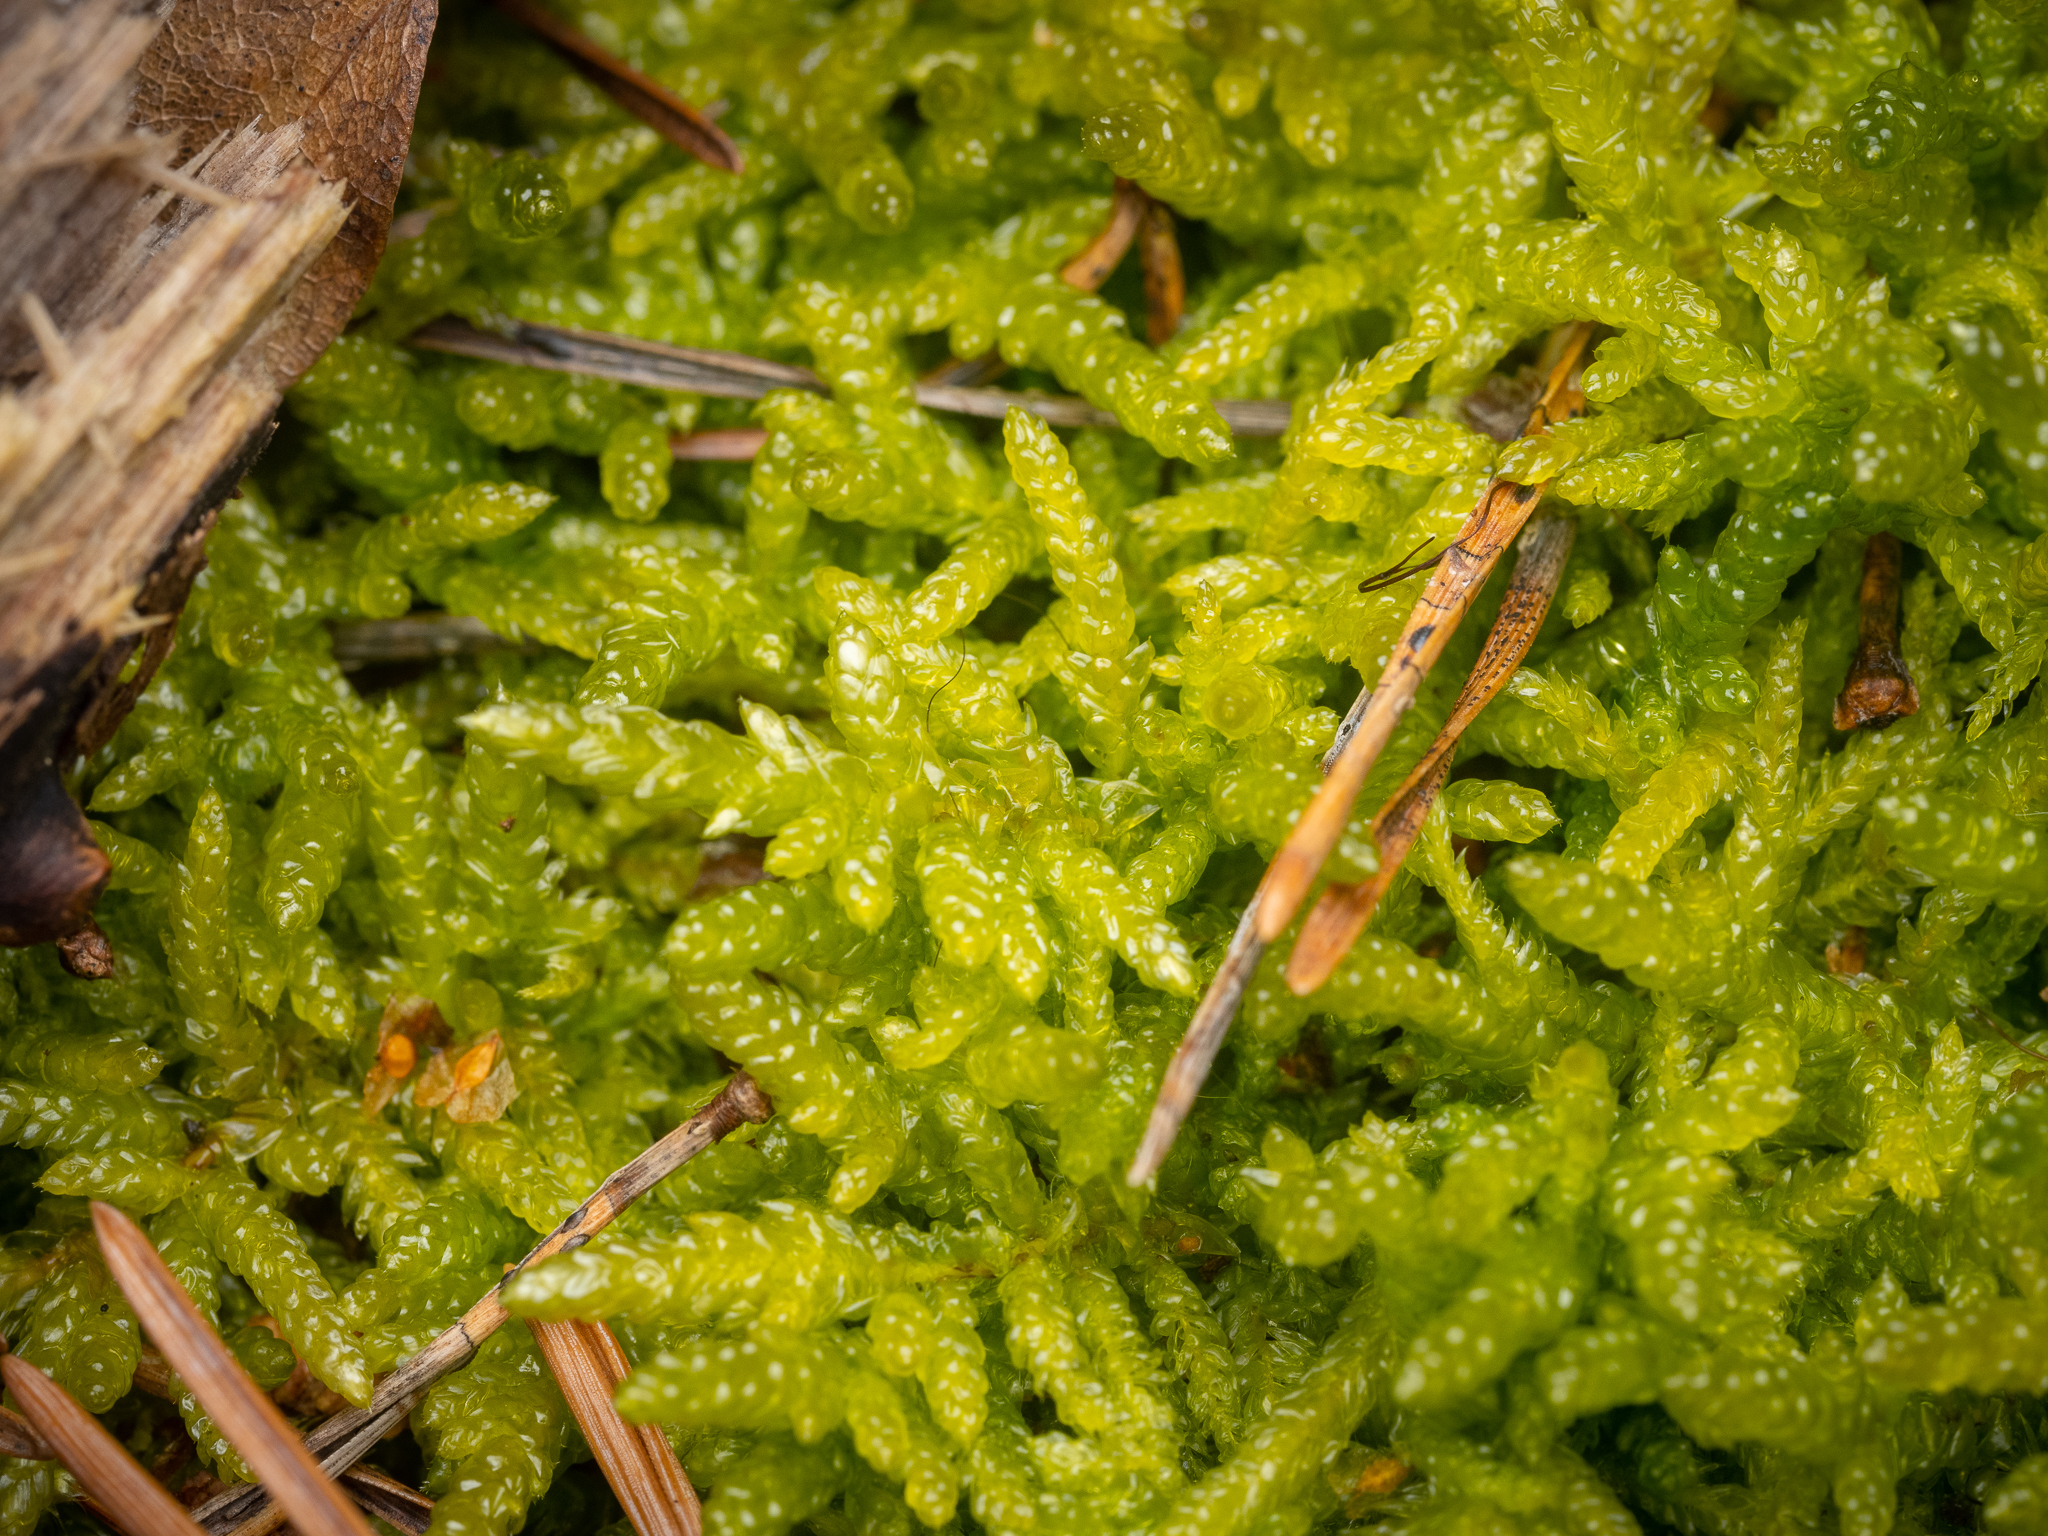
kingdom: Plantae
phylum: Bryophyta
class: Bryopsida
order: Hypnales
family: Brachytheciaceae
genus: Pseudoscleropodium
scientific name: Pseudoscleropodium purum
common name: Neat feather-moss
